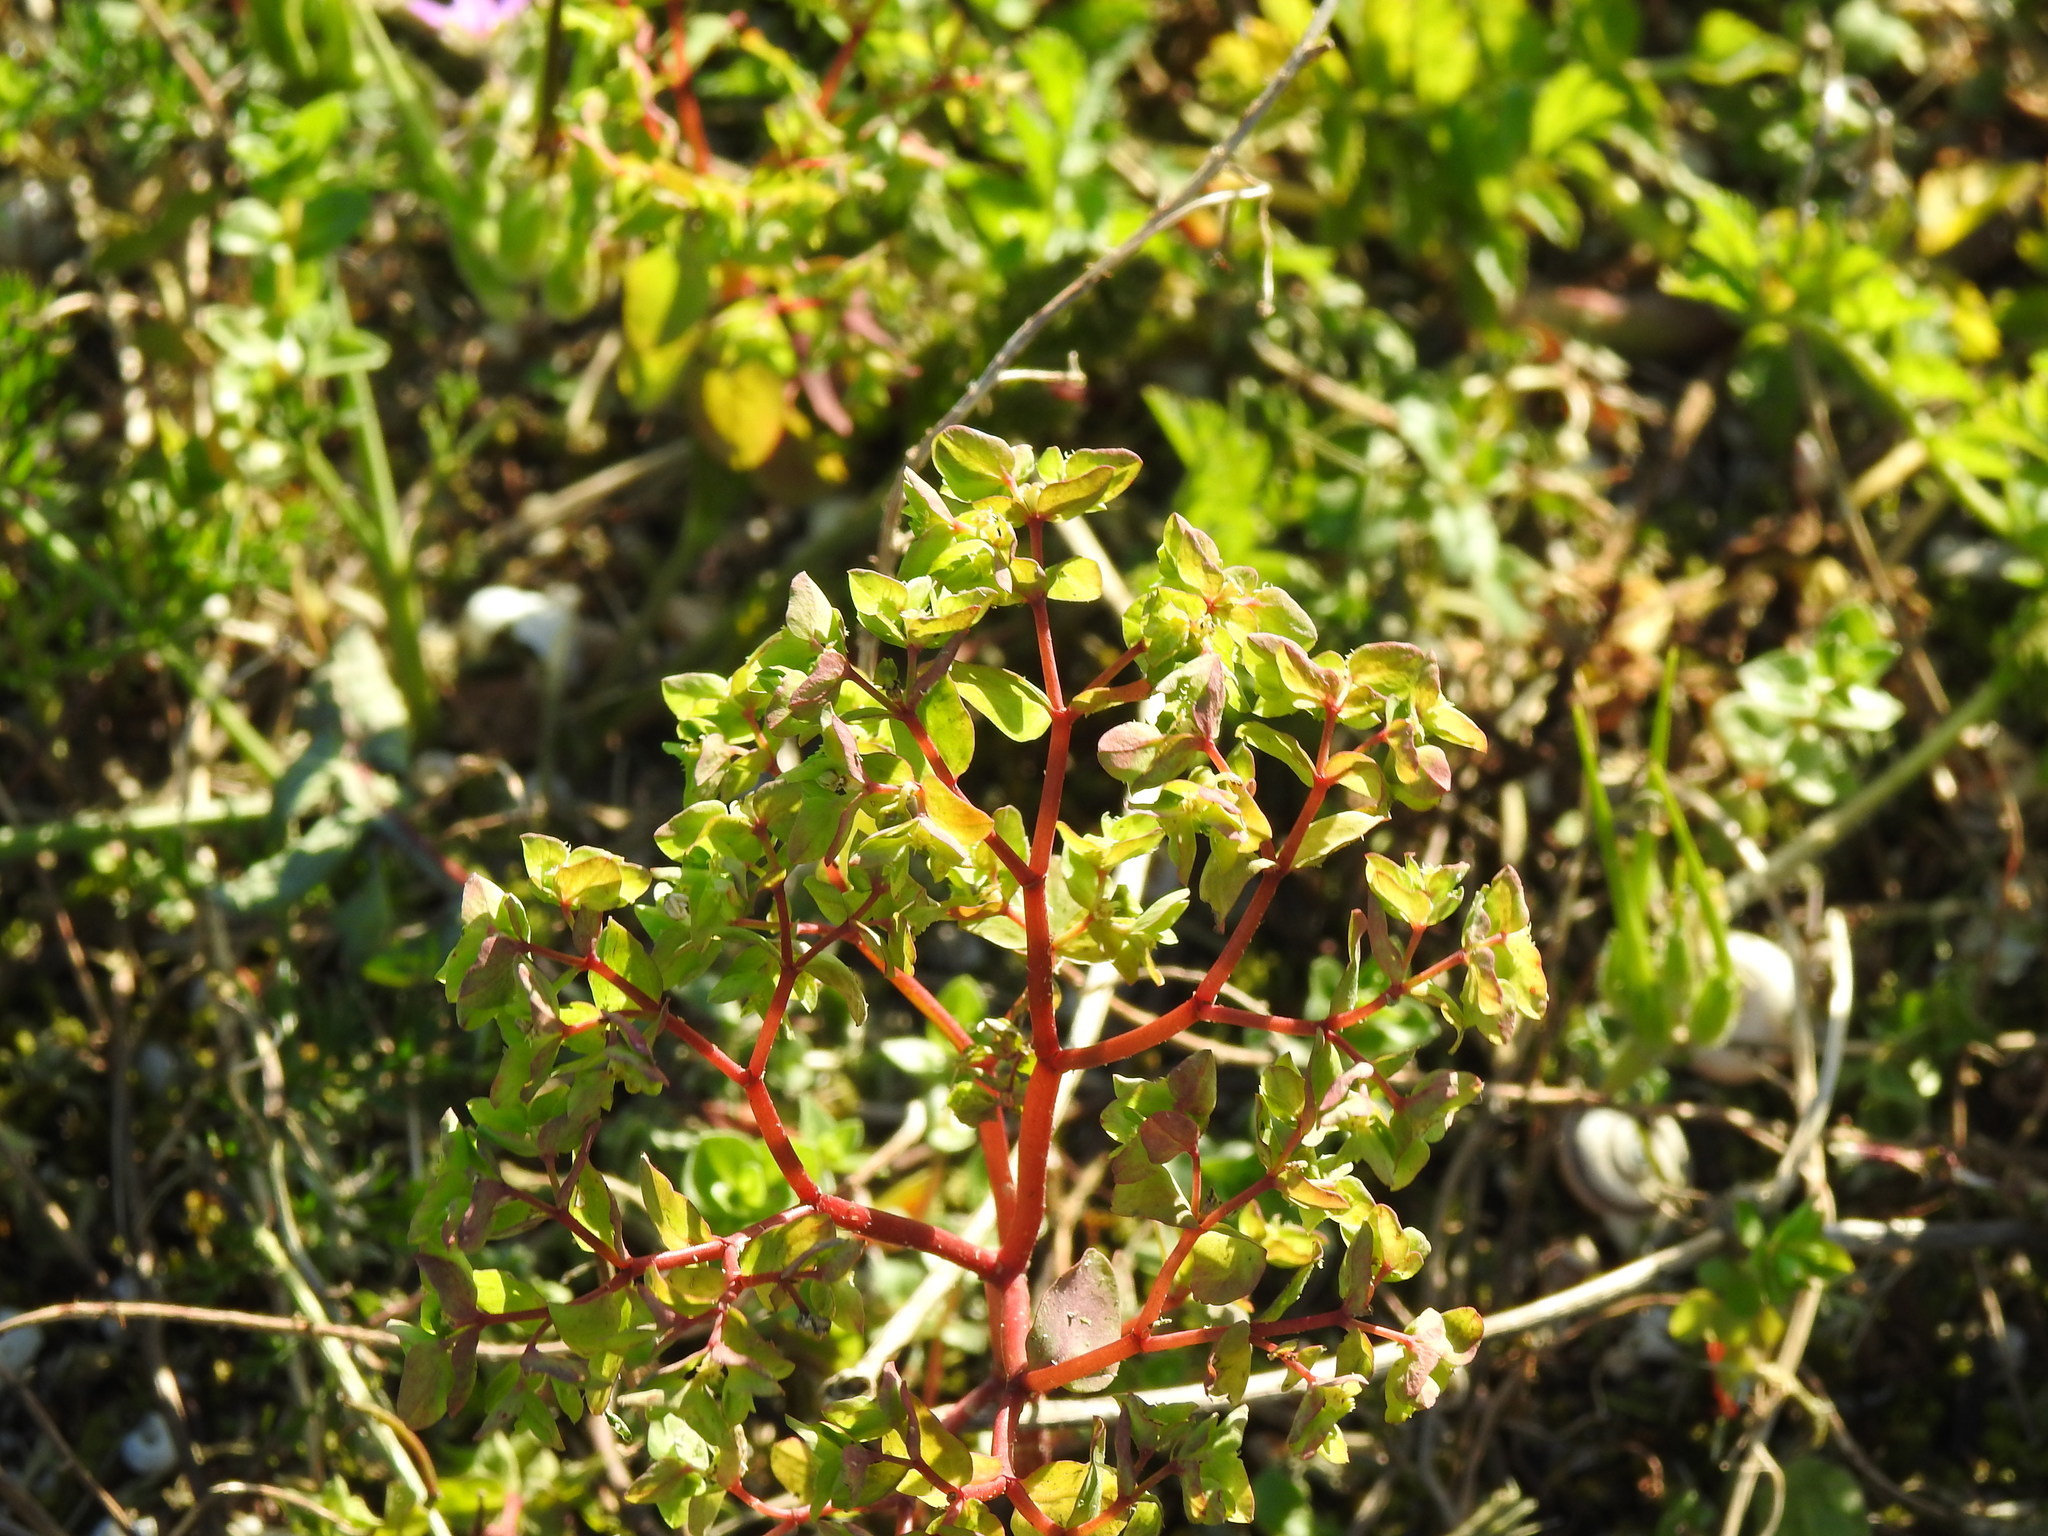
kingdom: Plantae
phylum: Tracheophyta
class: Magnoliopsida
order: Malpighiales
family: Euphorbiaceae
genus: Euphorbia
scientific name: Euphorbia peplus
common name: Petty spurge
